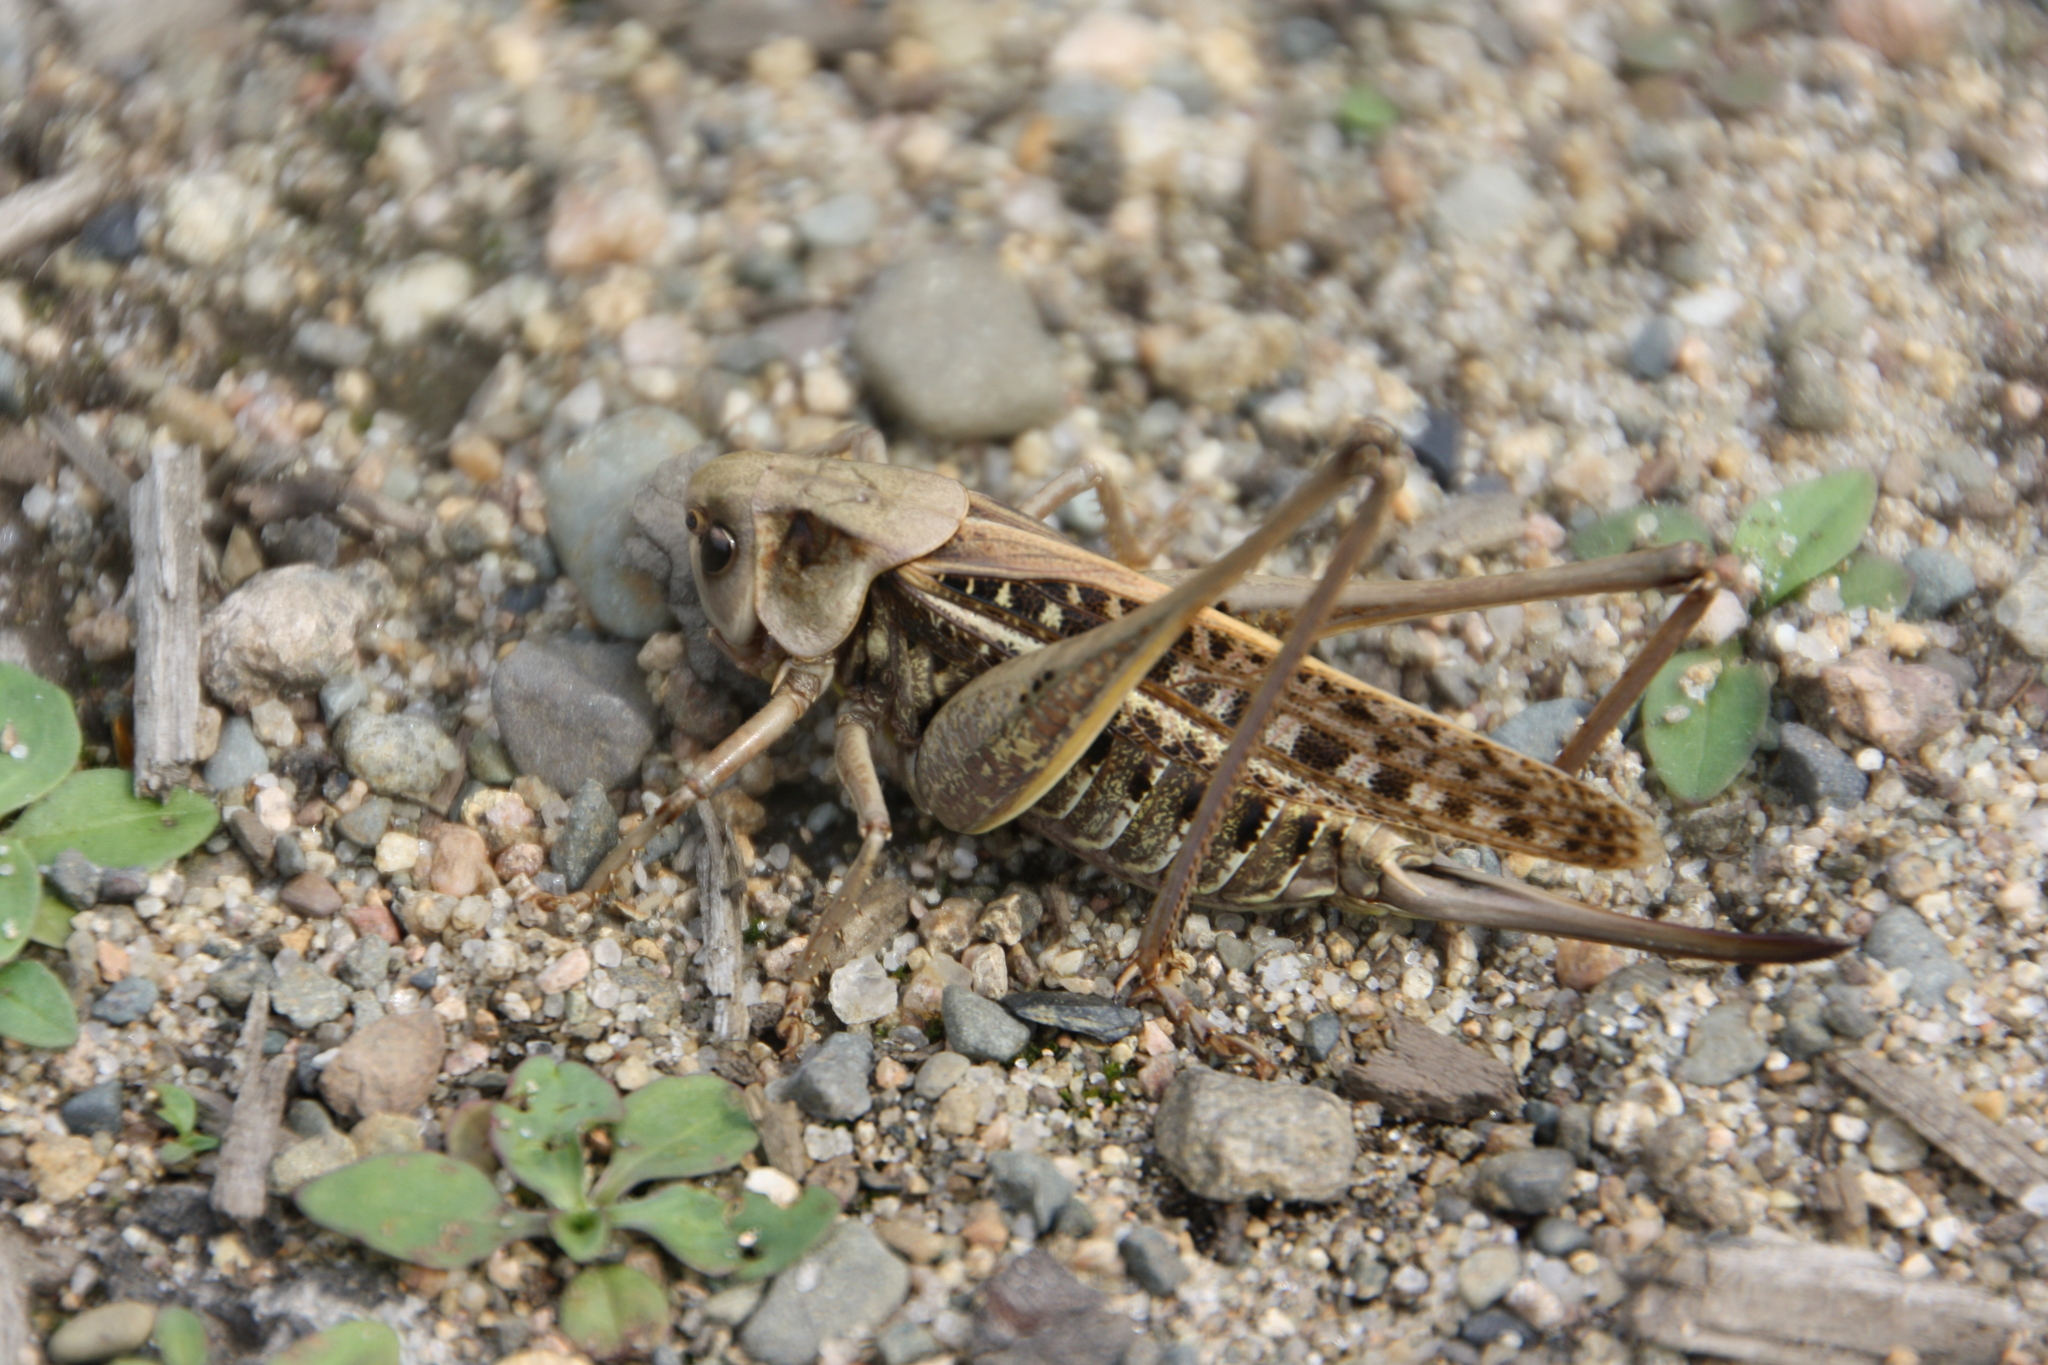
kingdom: Animalia
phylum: Arthropoda
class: Insecta
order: Orthoptera
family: Tettigoniidae
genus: Decticus
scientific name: Decticus verrucivorus
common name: Wart-biter
